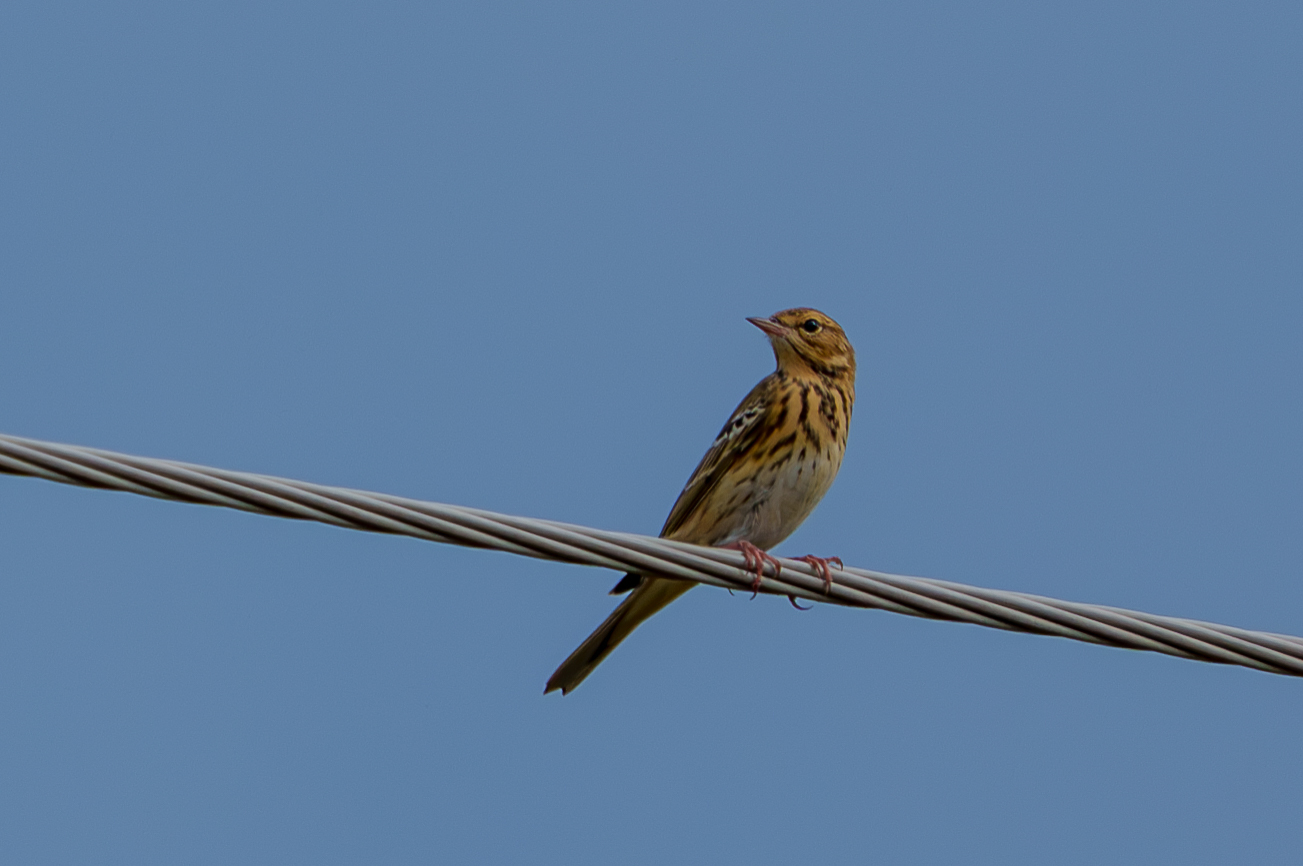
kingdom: Animalia
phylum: Chordata
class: Aves
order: Passeriformes
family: Motacillidae
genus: Anthus
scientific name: Anthus trivialis
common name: Tree pipit
